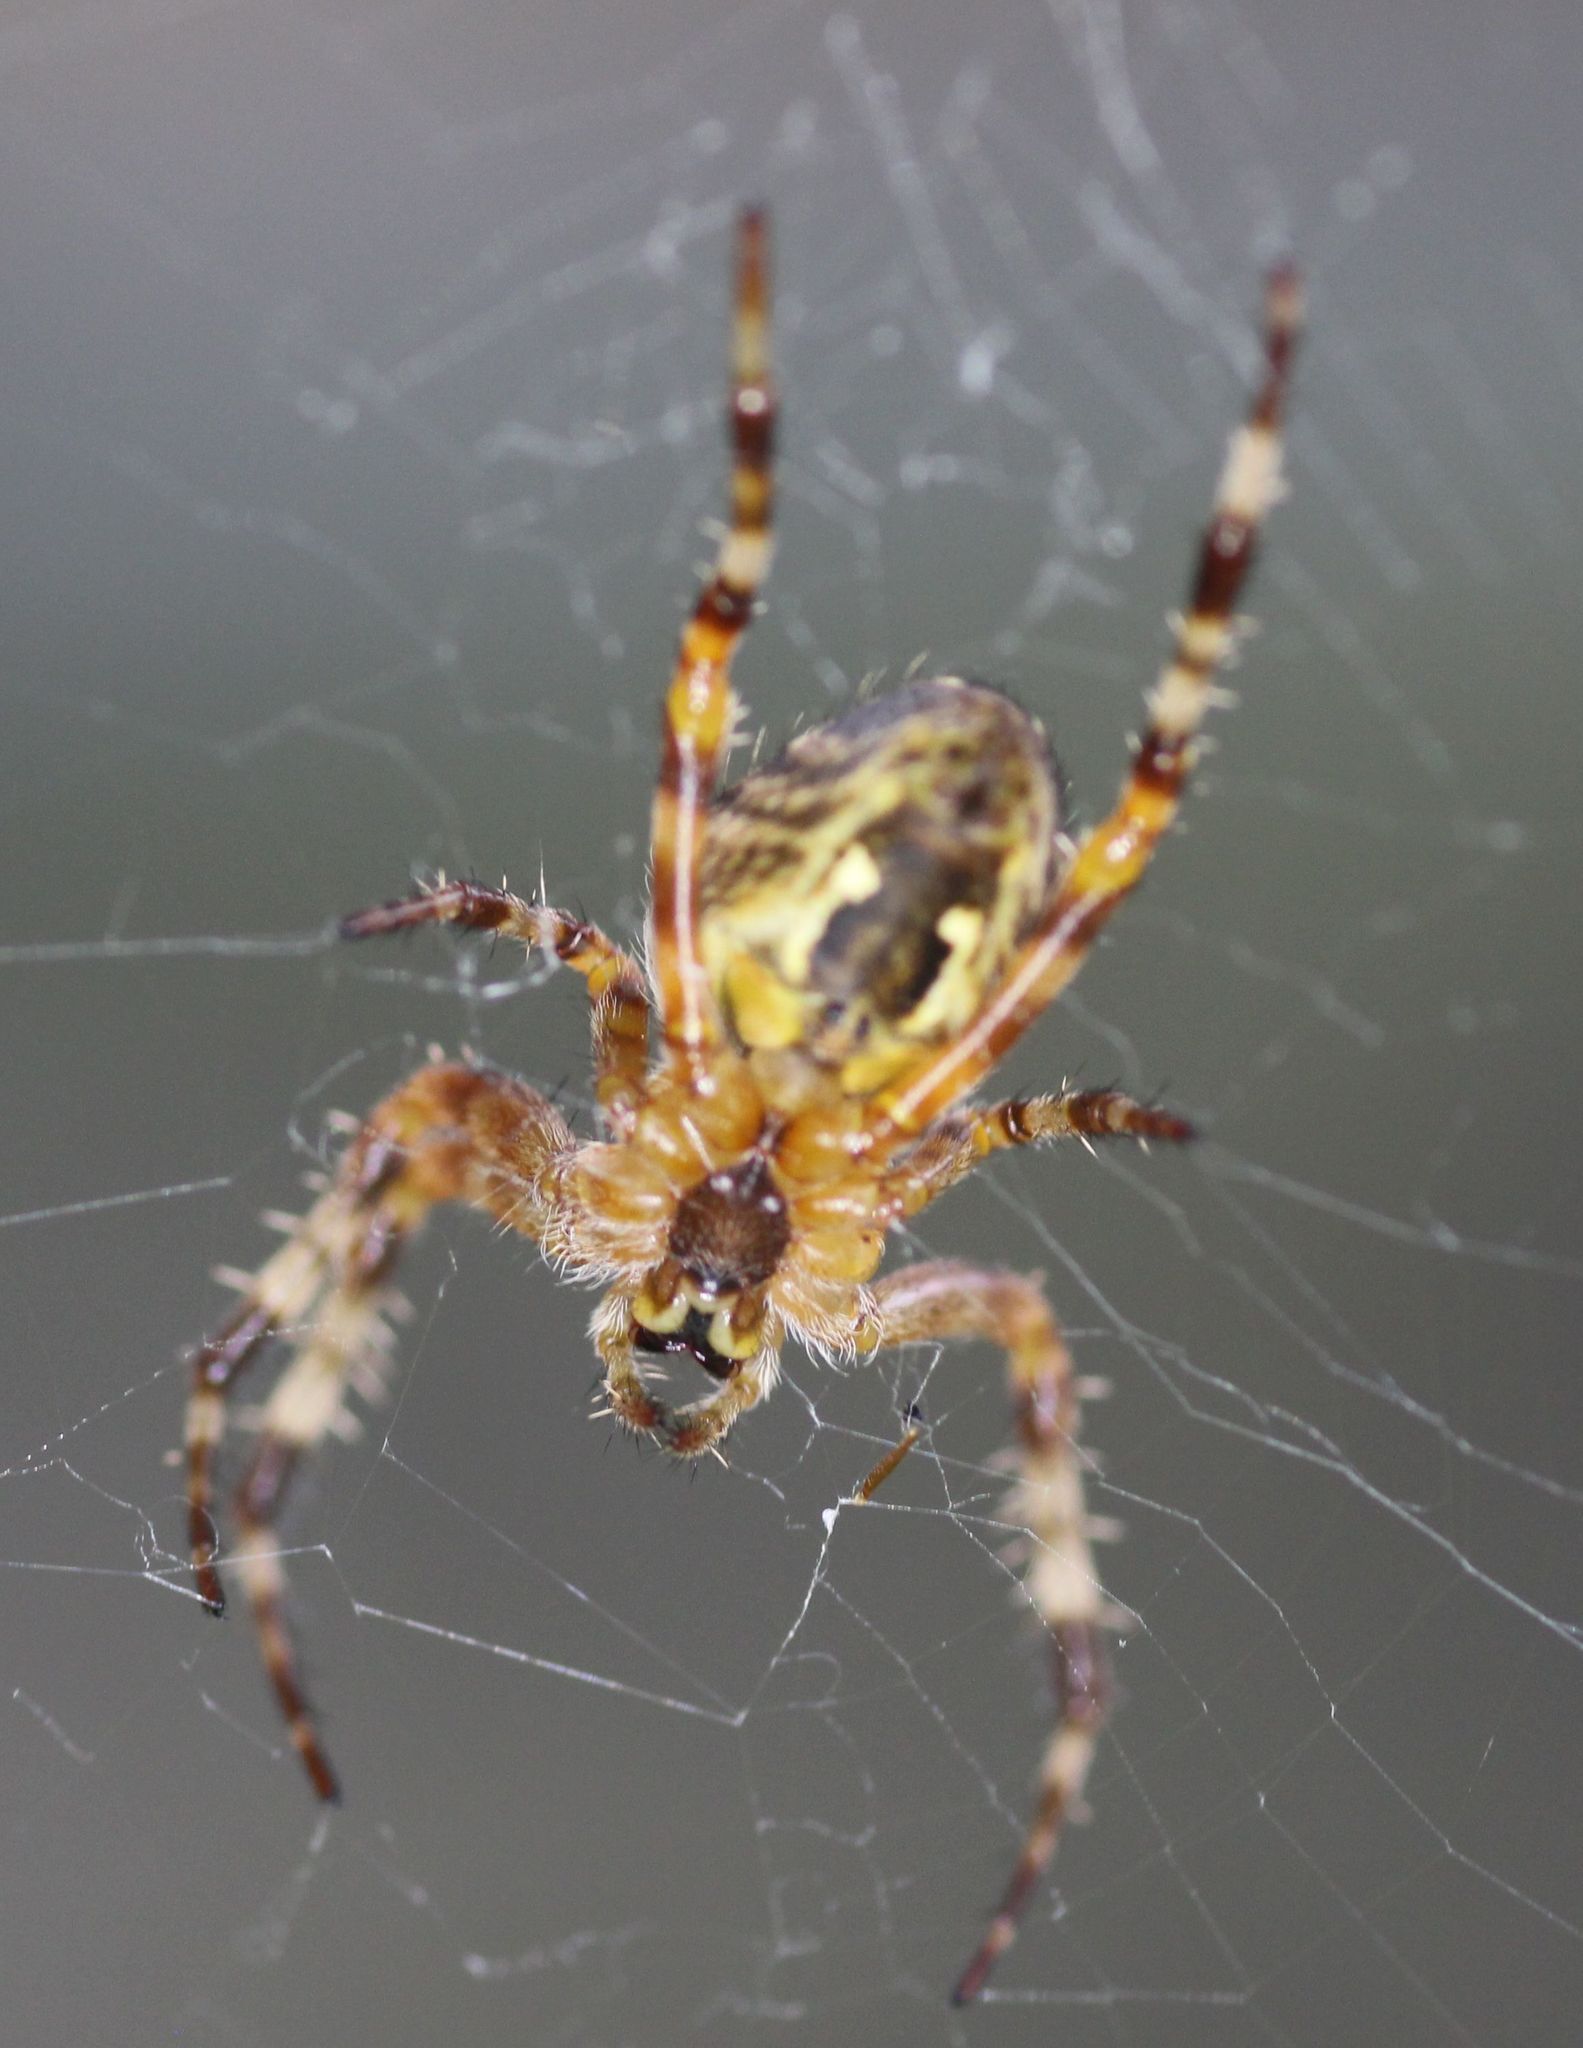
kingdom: Animalia
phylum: Arthropoda
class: Arachnida
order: Araneae
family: Araneidae
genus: Araneus
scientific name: Araneus diadematus
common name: Cross orbweaver
